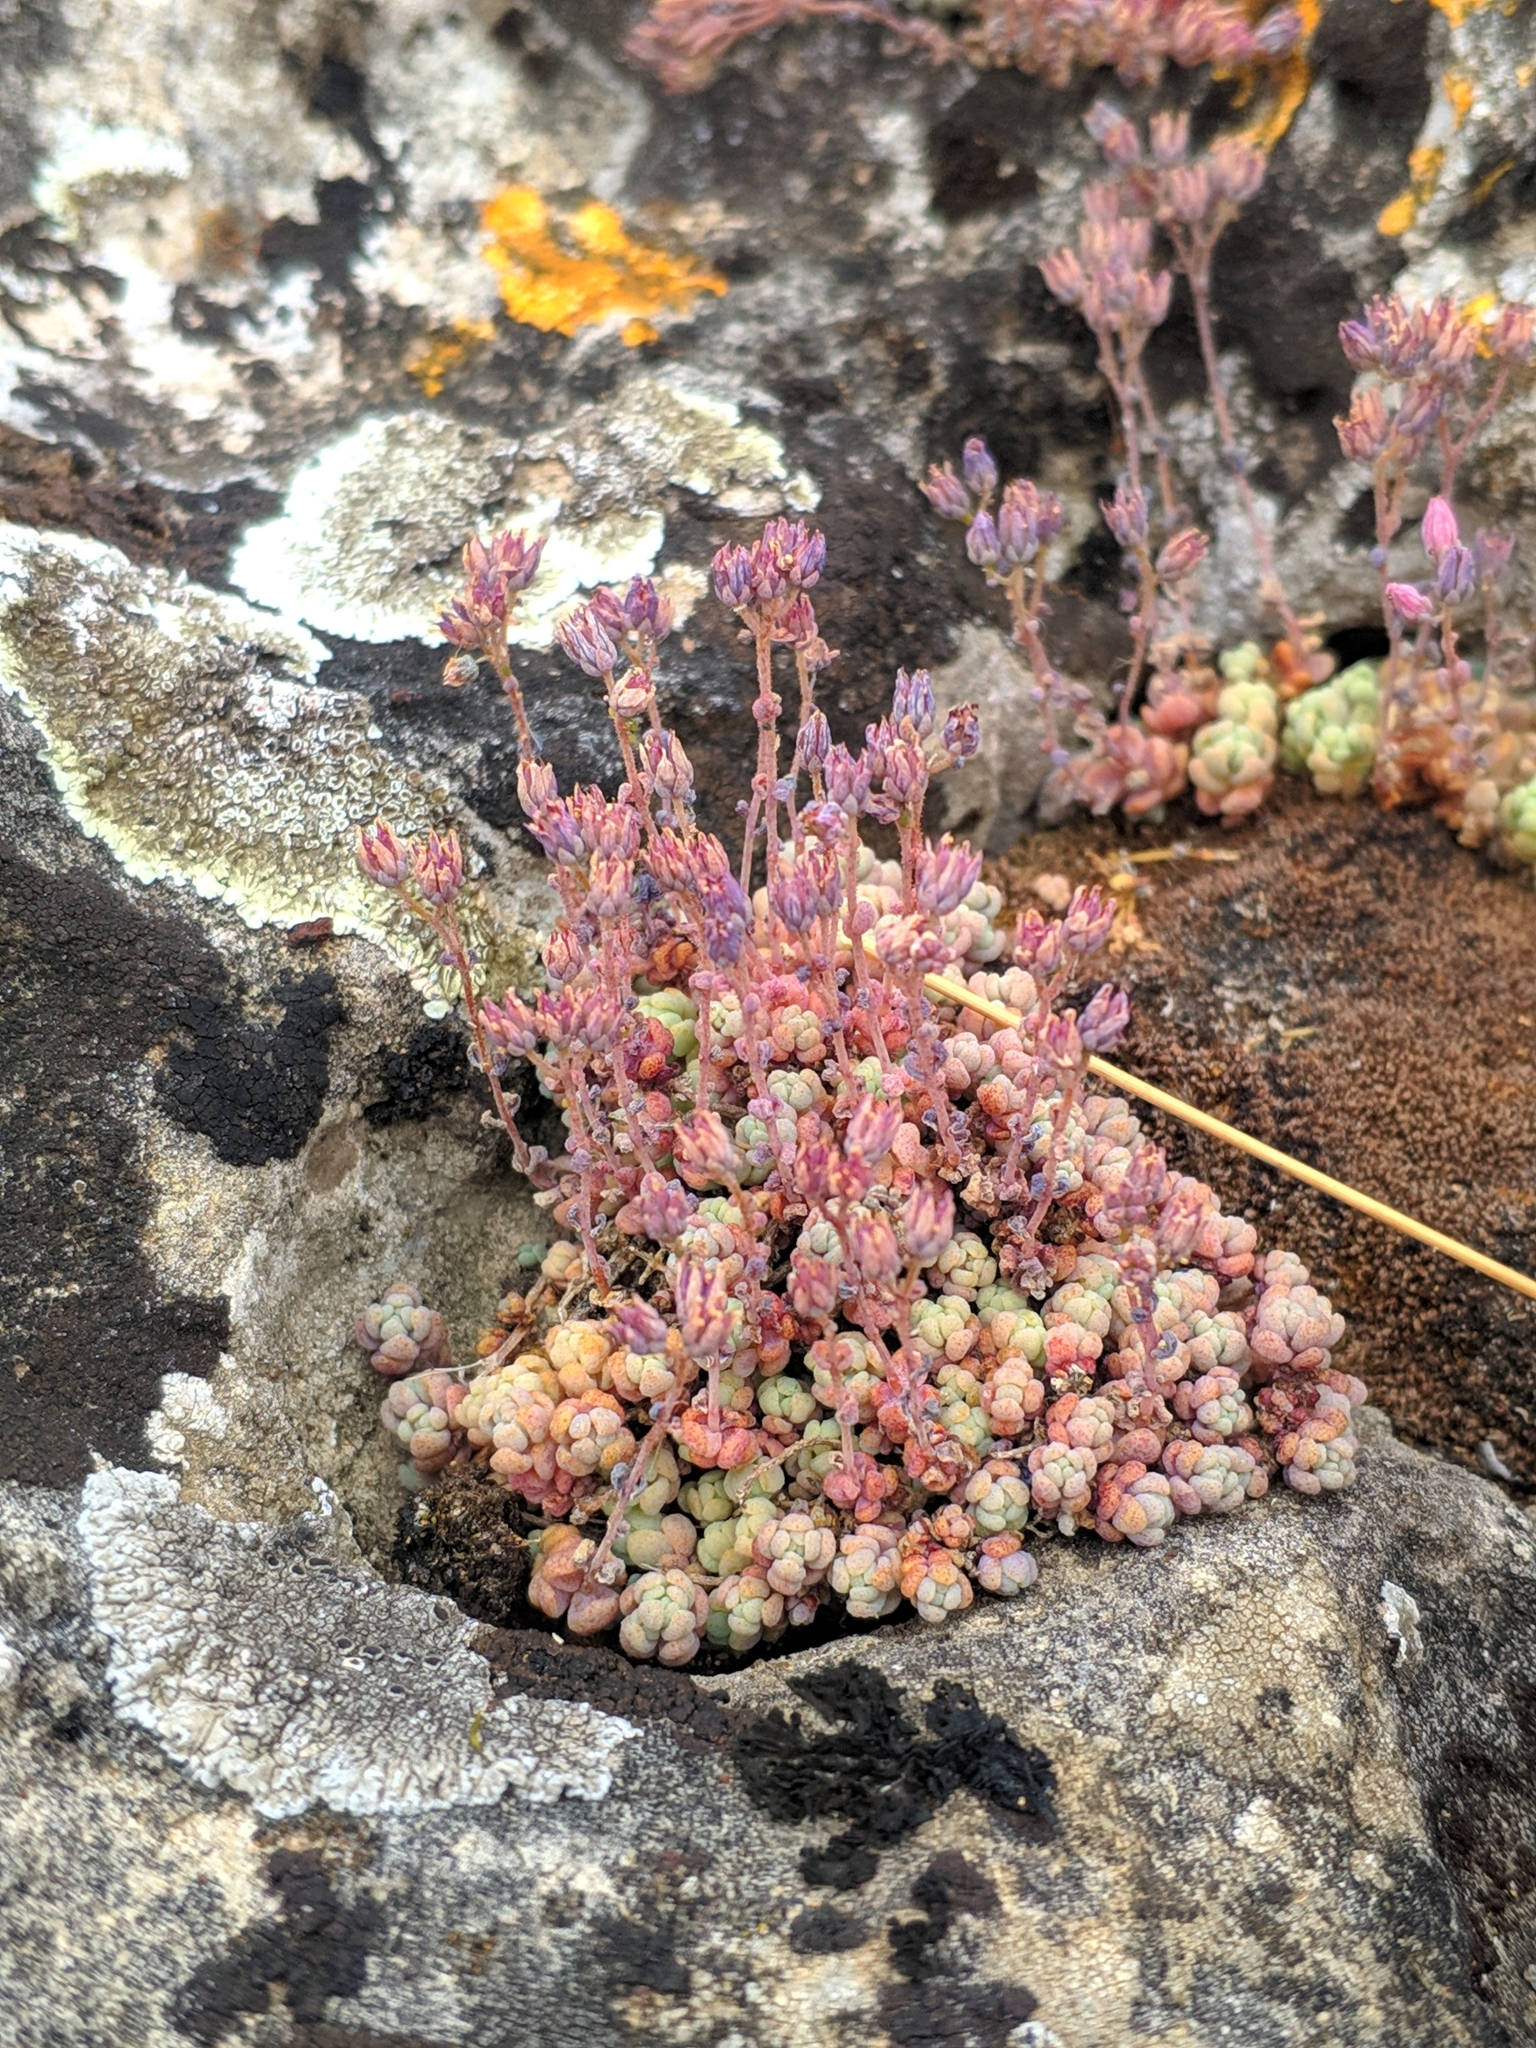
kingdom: Plantae
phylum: Tracheophyta
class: Magnoliopsida
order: Saxifragales
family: Crassulaceae
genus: Sedum
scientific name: Sedum dasyphyllum
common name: Thick-leaf stonecrop
